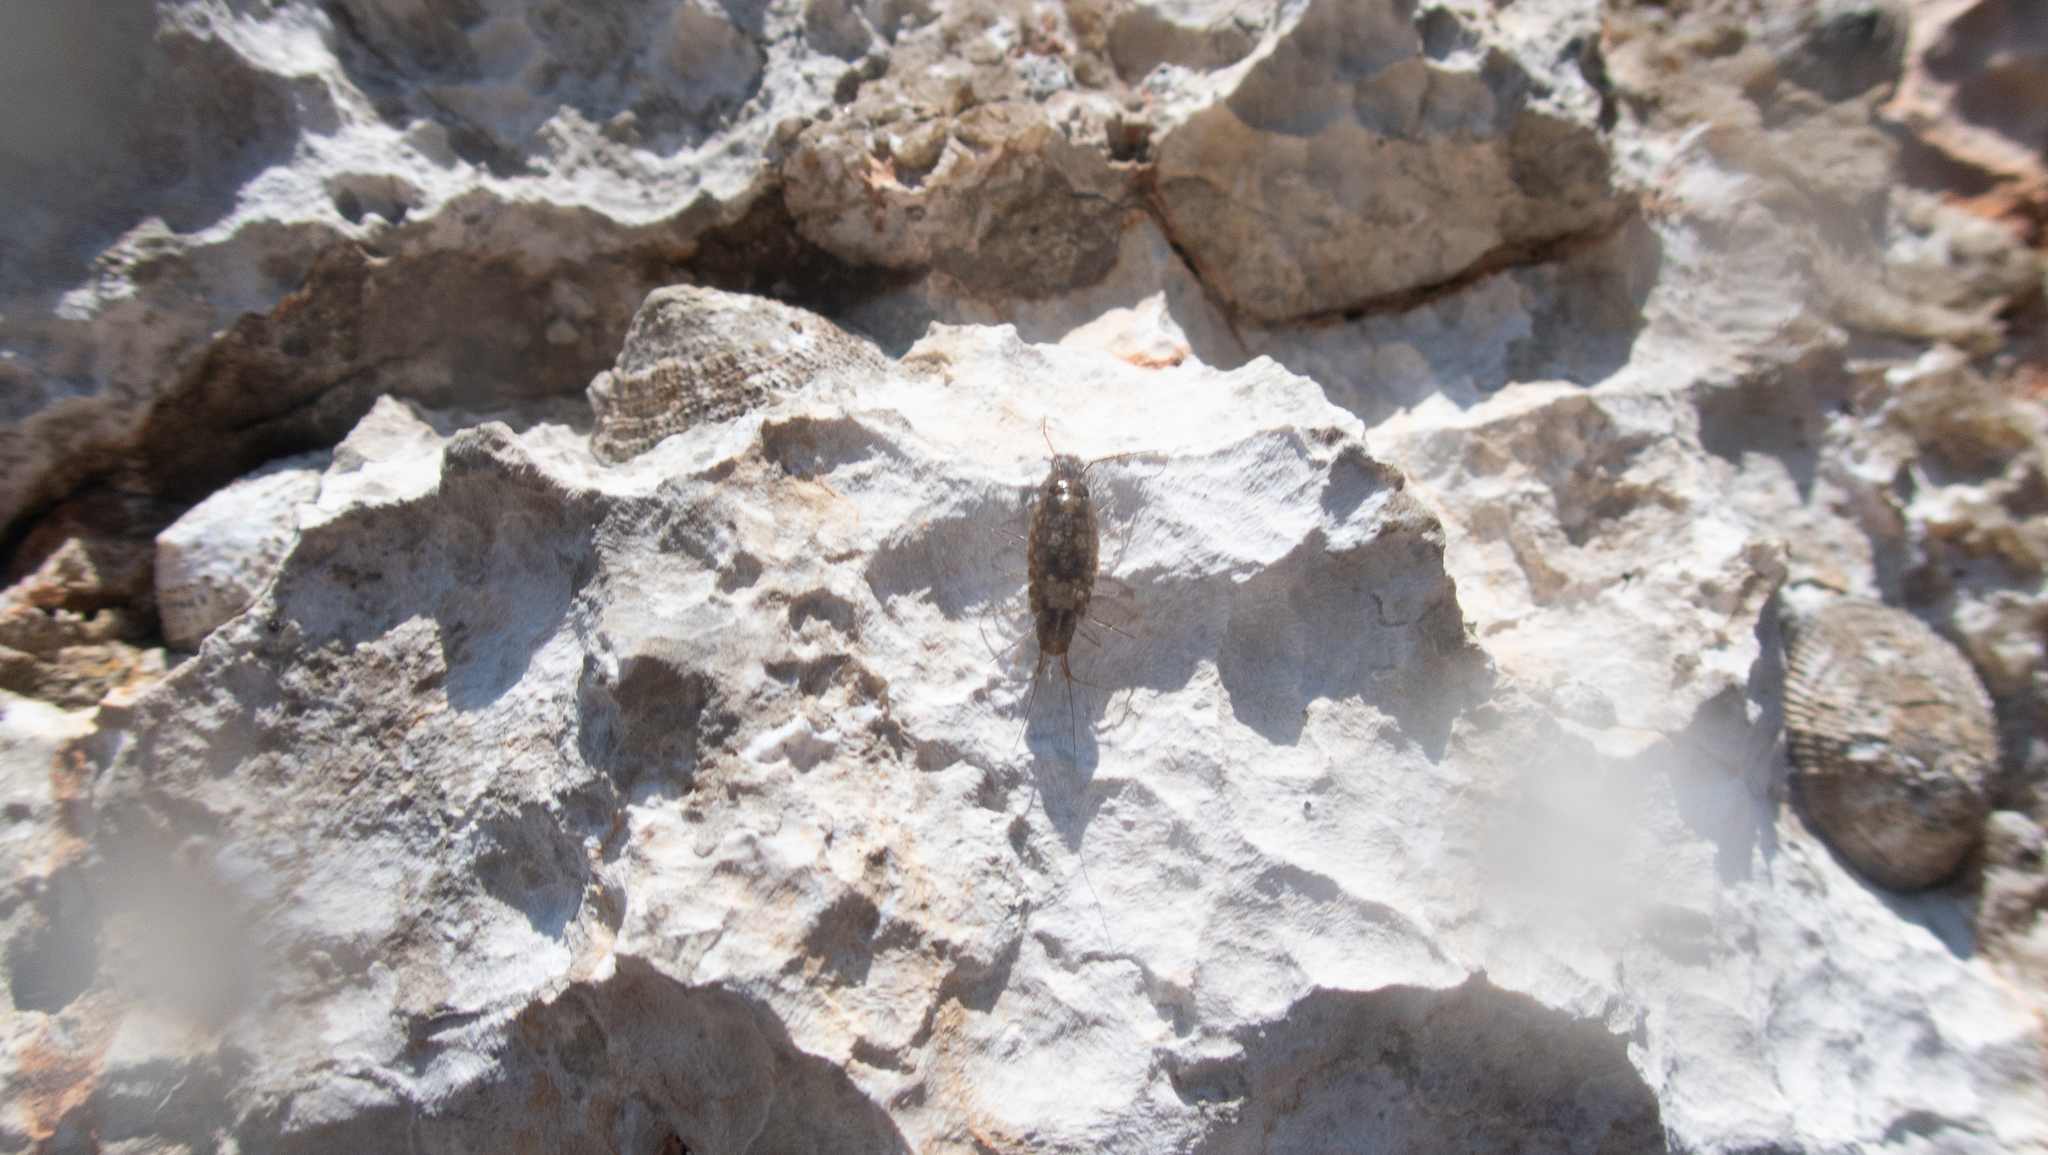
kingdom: Animalia
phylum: Arthropoda
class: Malacostraca
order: Isopoda
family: Ligiidae
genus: Ligia
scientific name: Ligia italica
